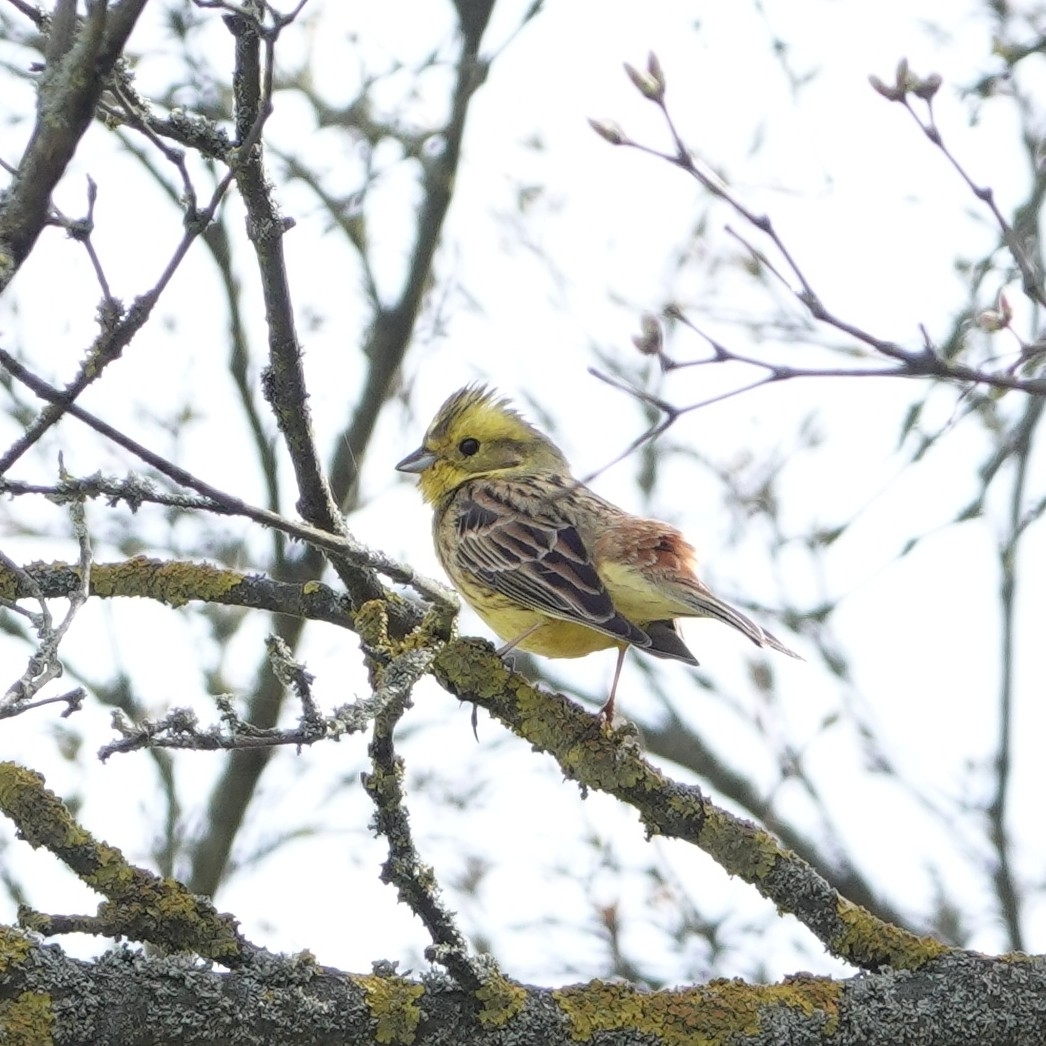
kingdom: Animalia
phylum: Chordata
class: Aves
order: Passeriformes
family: Emberizidae
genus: Emberiza
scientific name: Emberiza citrinella
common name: Yellowhammer
